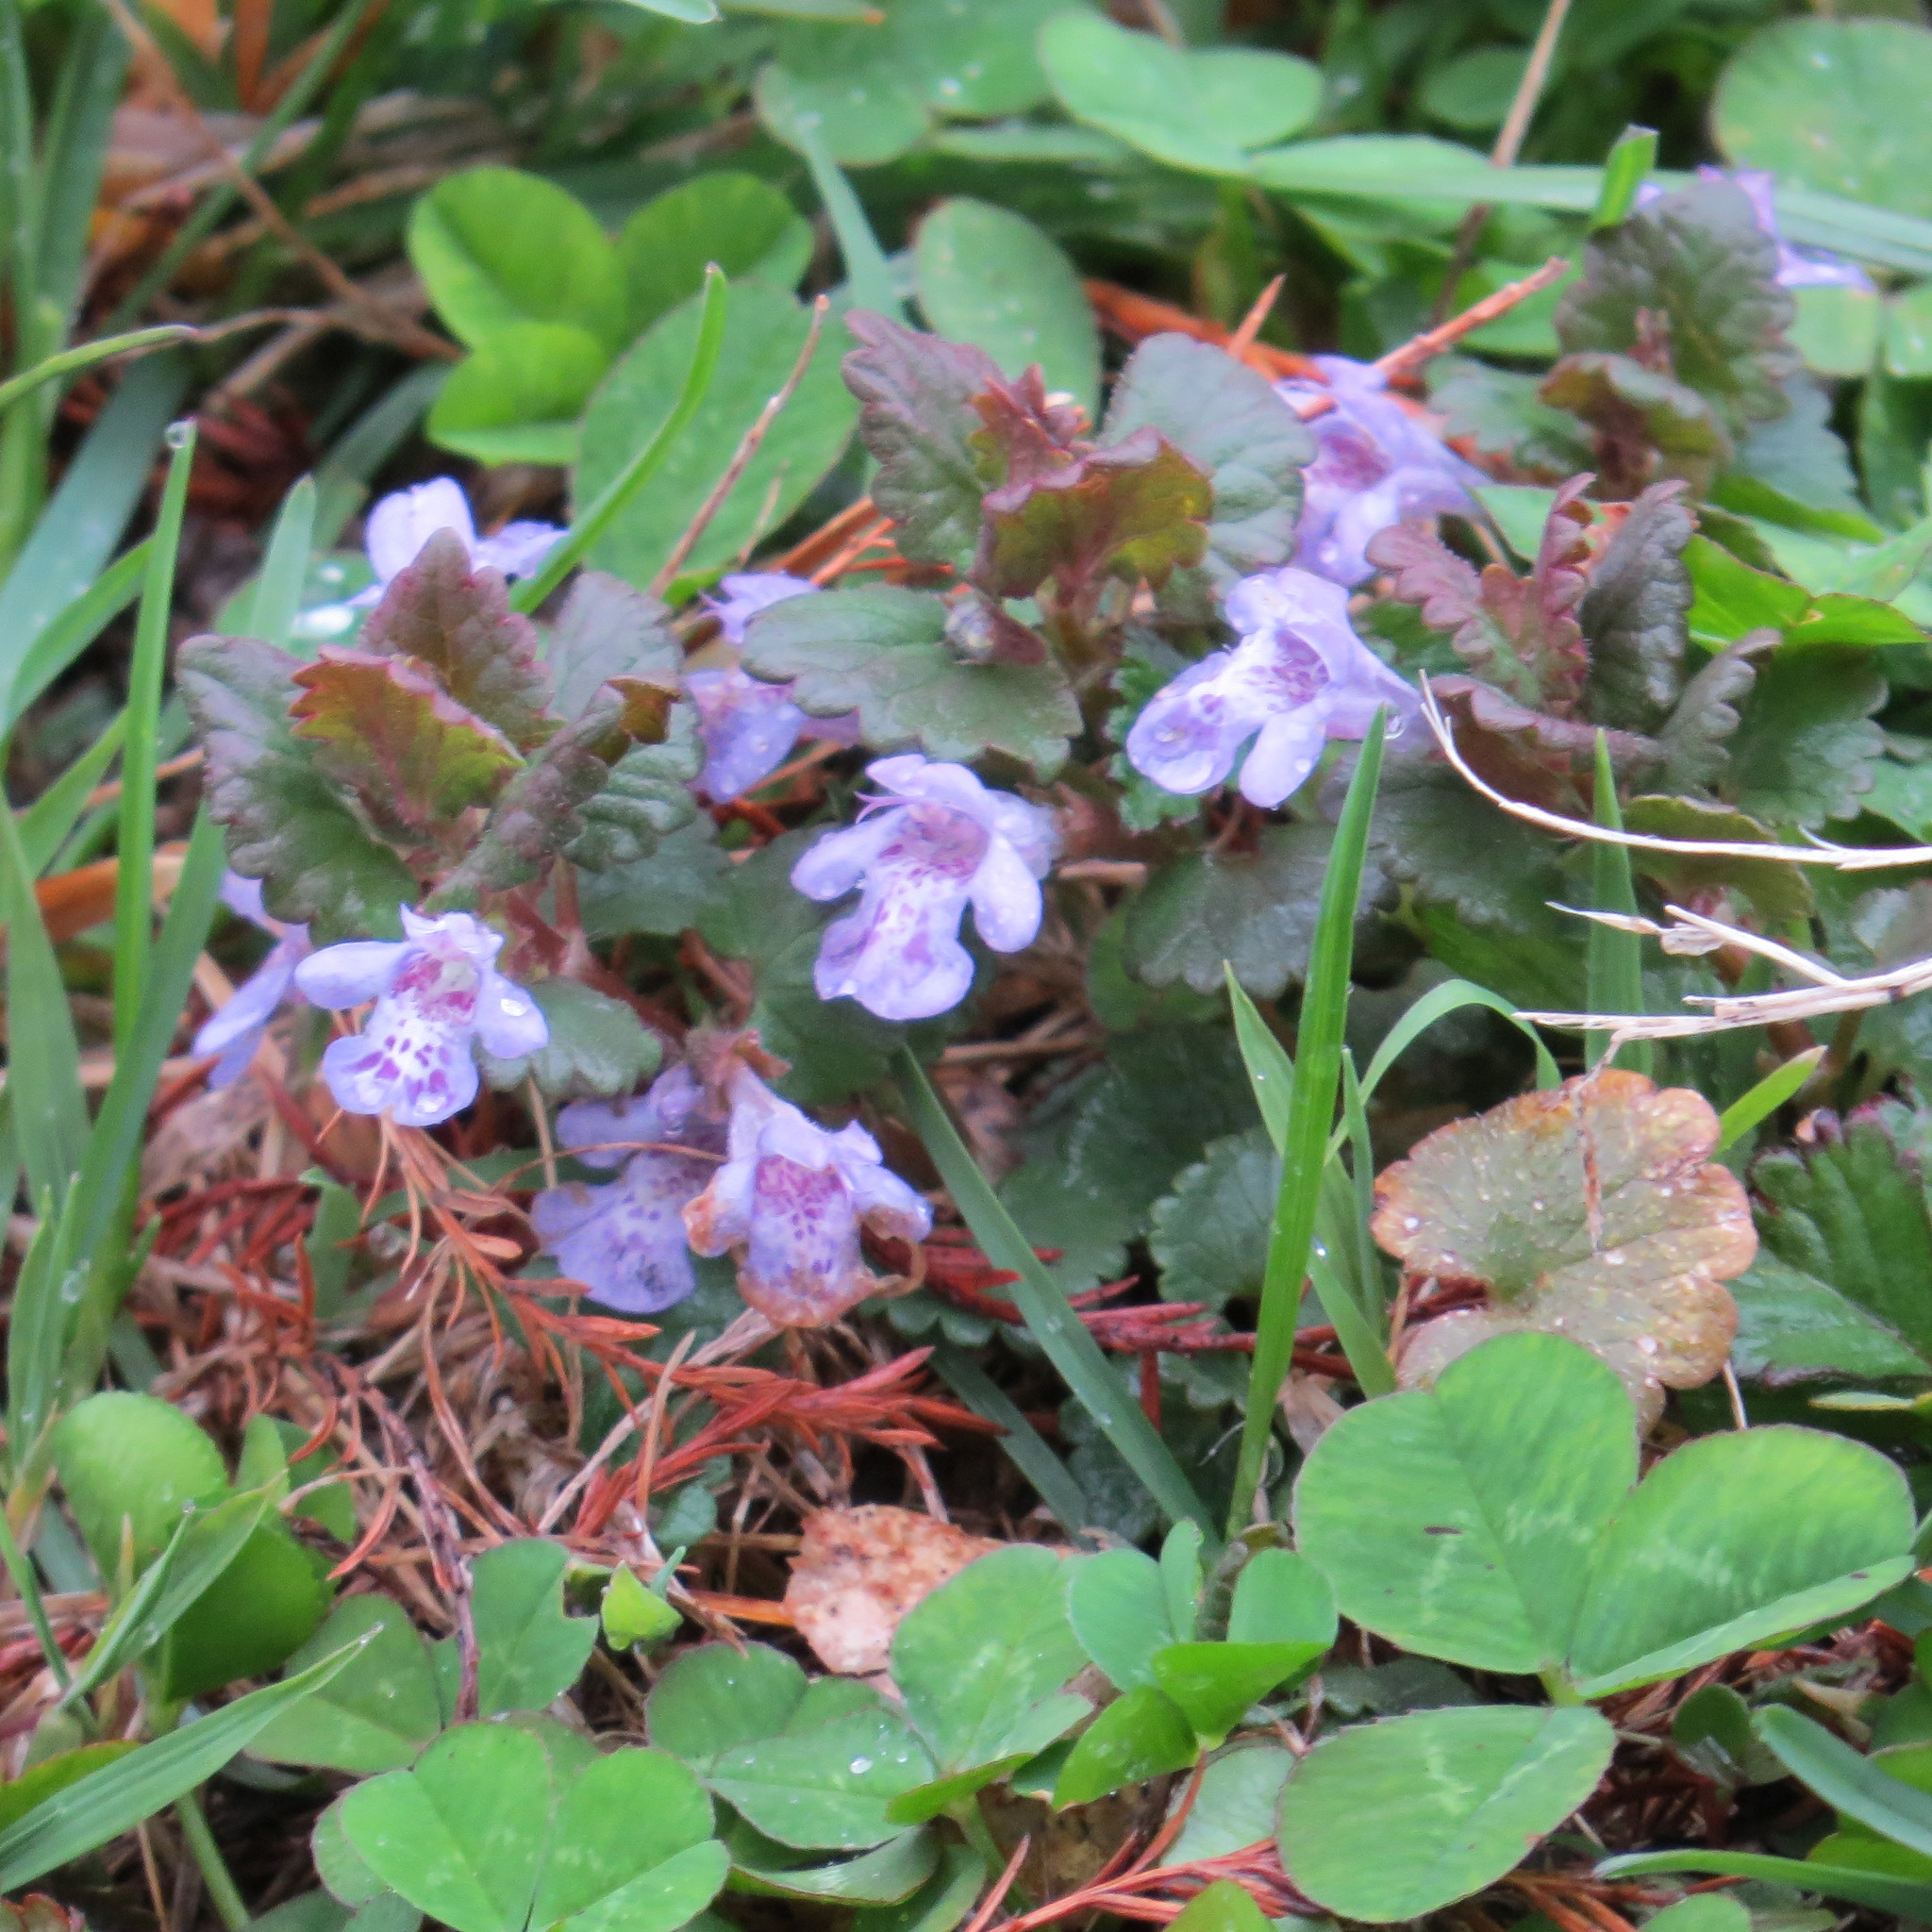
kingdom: Plantae
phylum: Tracheophyta
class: Magnoliopsida
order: Lamiales
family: Lamiaceae
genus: Glechoma
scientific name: Glechoma hederacea
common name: Ground ivy
